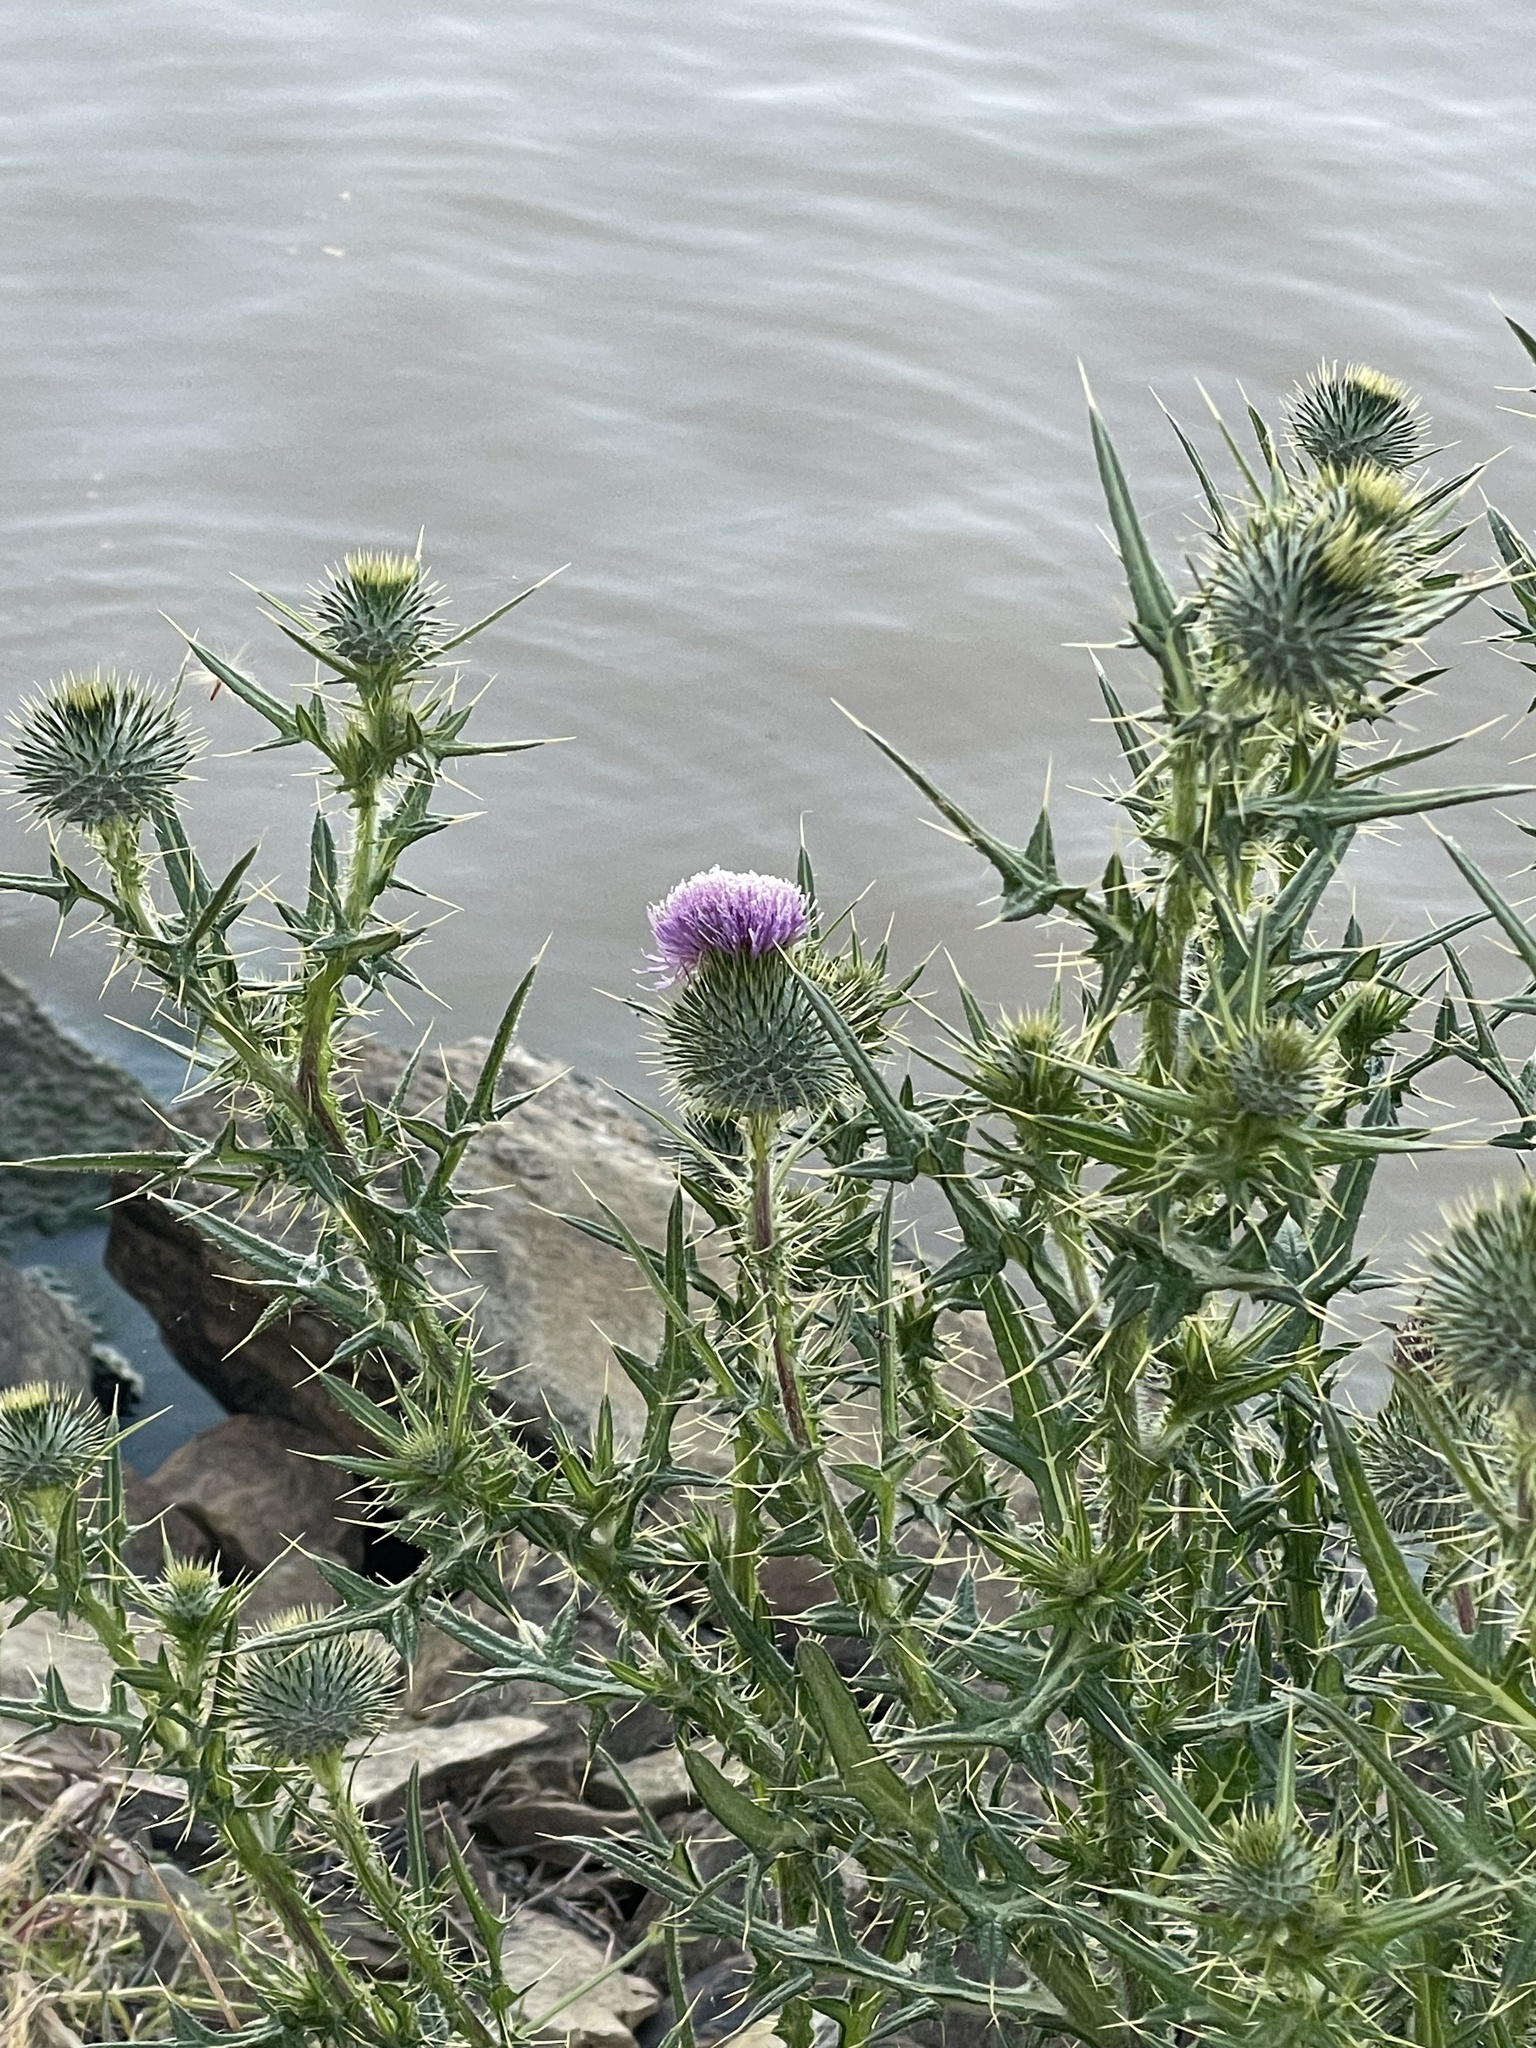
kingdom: Plantae
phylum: Tracheophyta
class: Magnoliopsida
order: Asterales
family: Asteraceae
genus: Cirsium
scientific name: Cirsium vulgare
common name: Bull thistle
